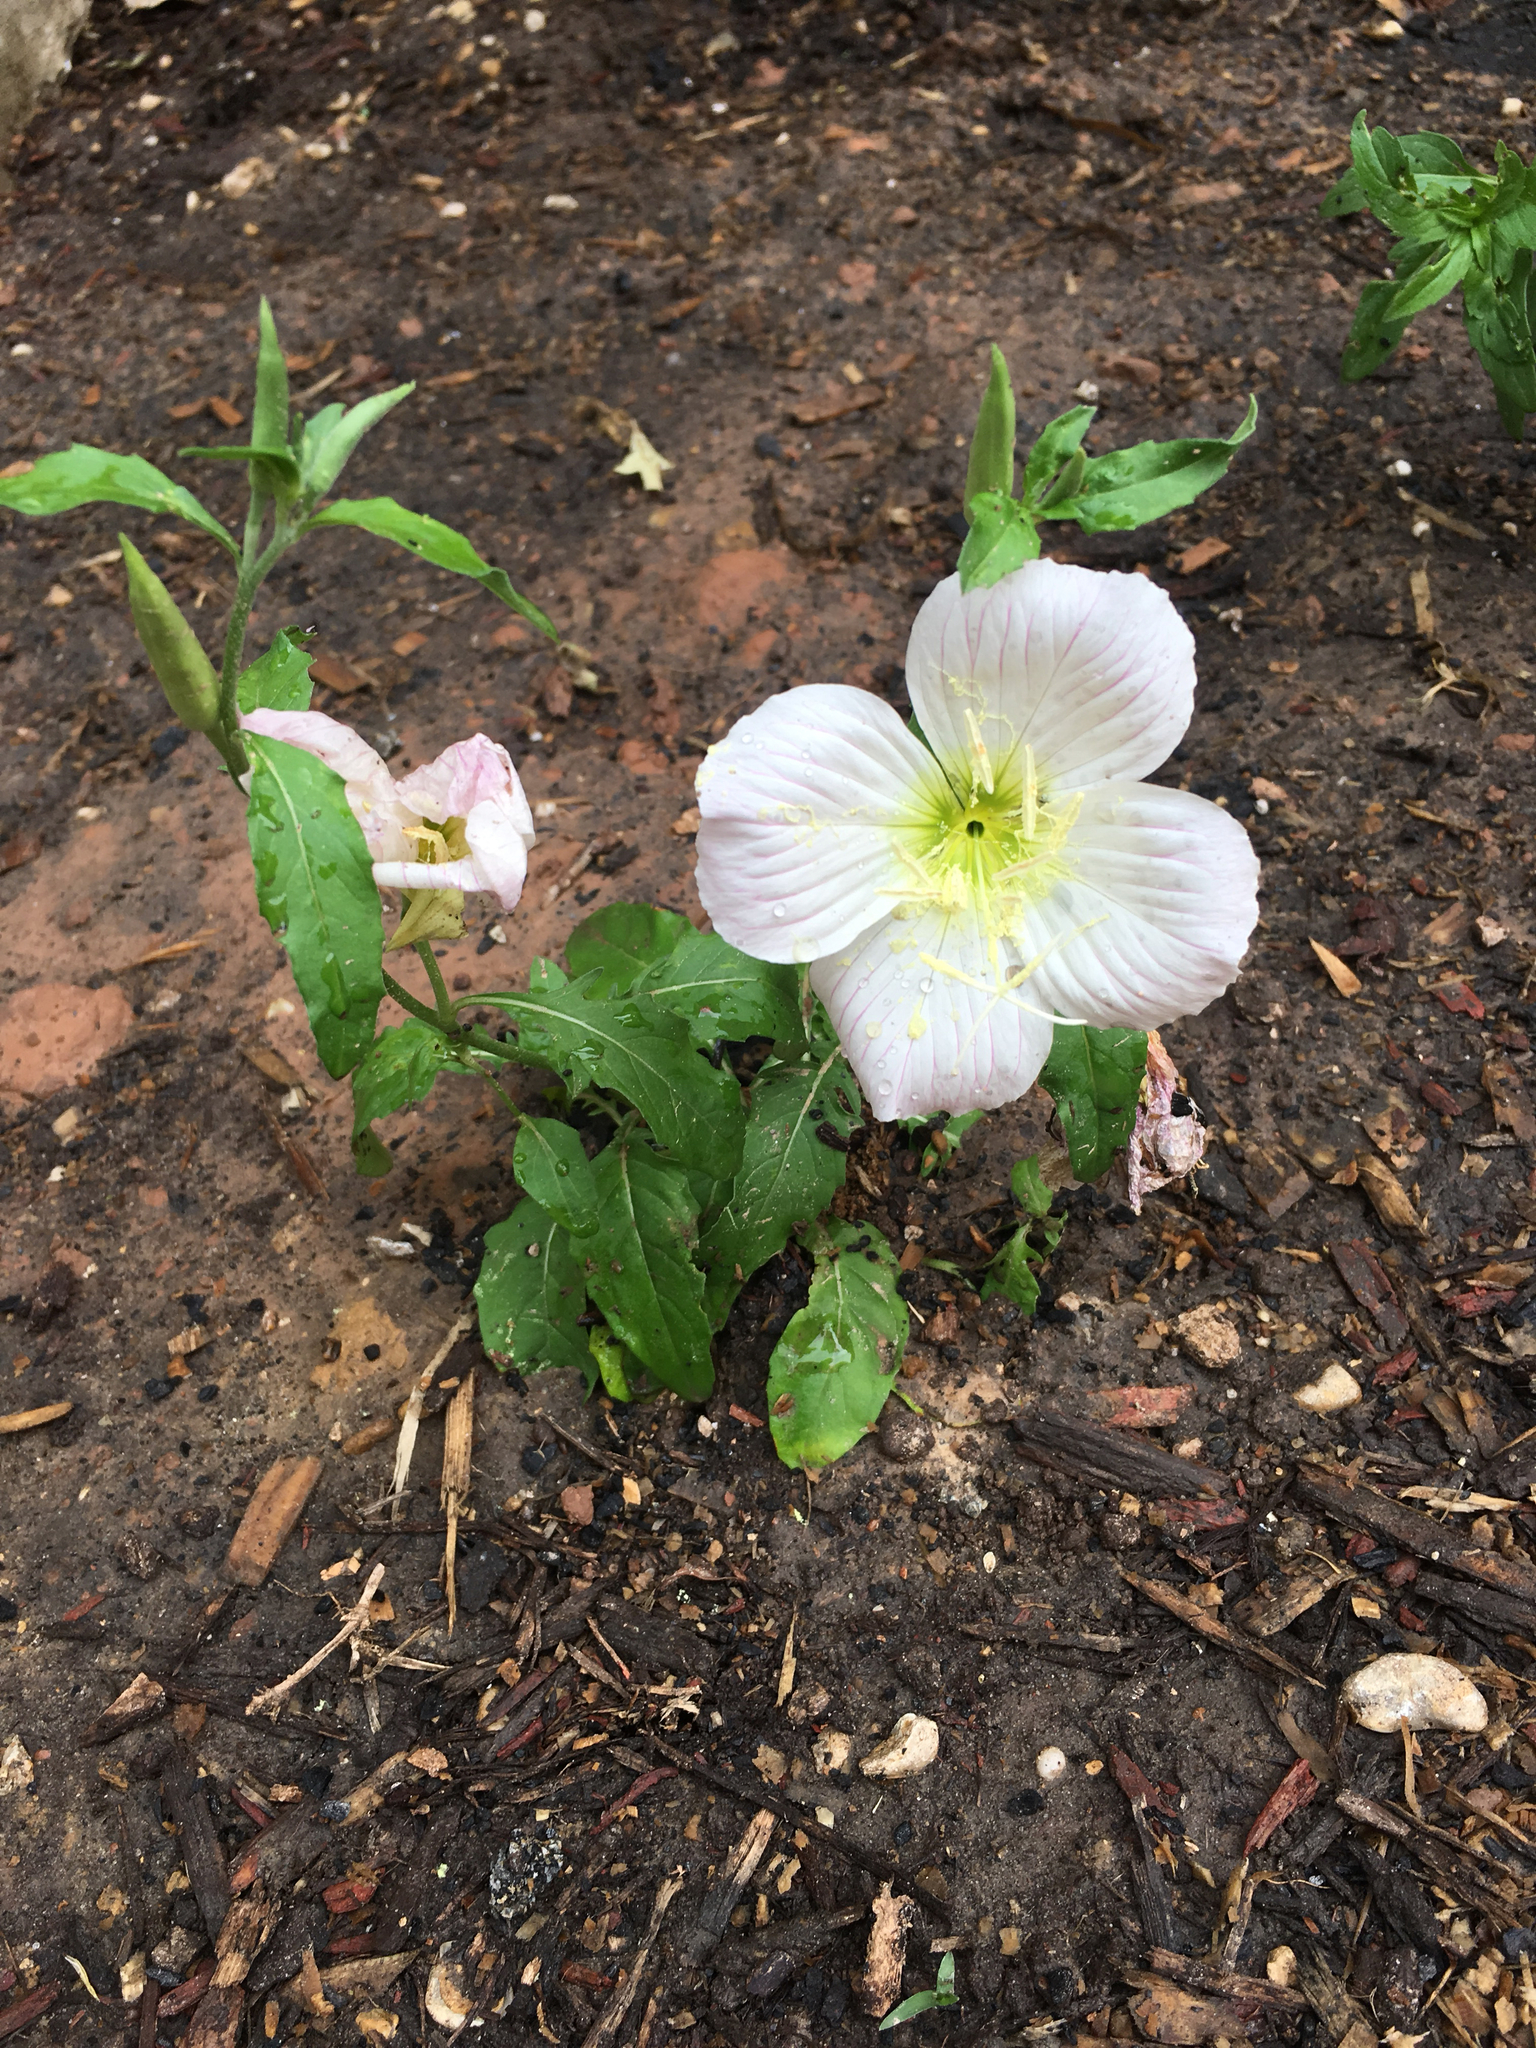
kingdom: Plantae
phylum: Tracheophyta
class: Magnoliopsida
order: Myrtales
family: Onagraceae
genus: Oenothera
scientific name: Oenothera speciosa
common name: White evening-primrose
